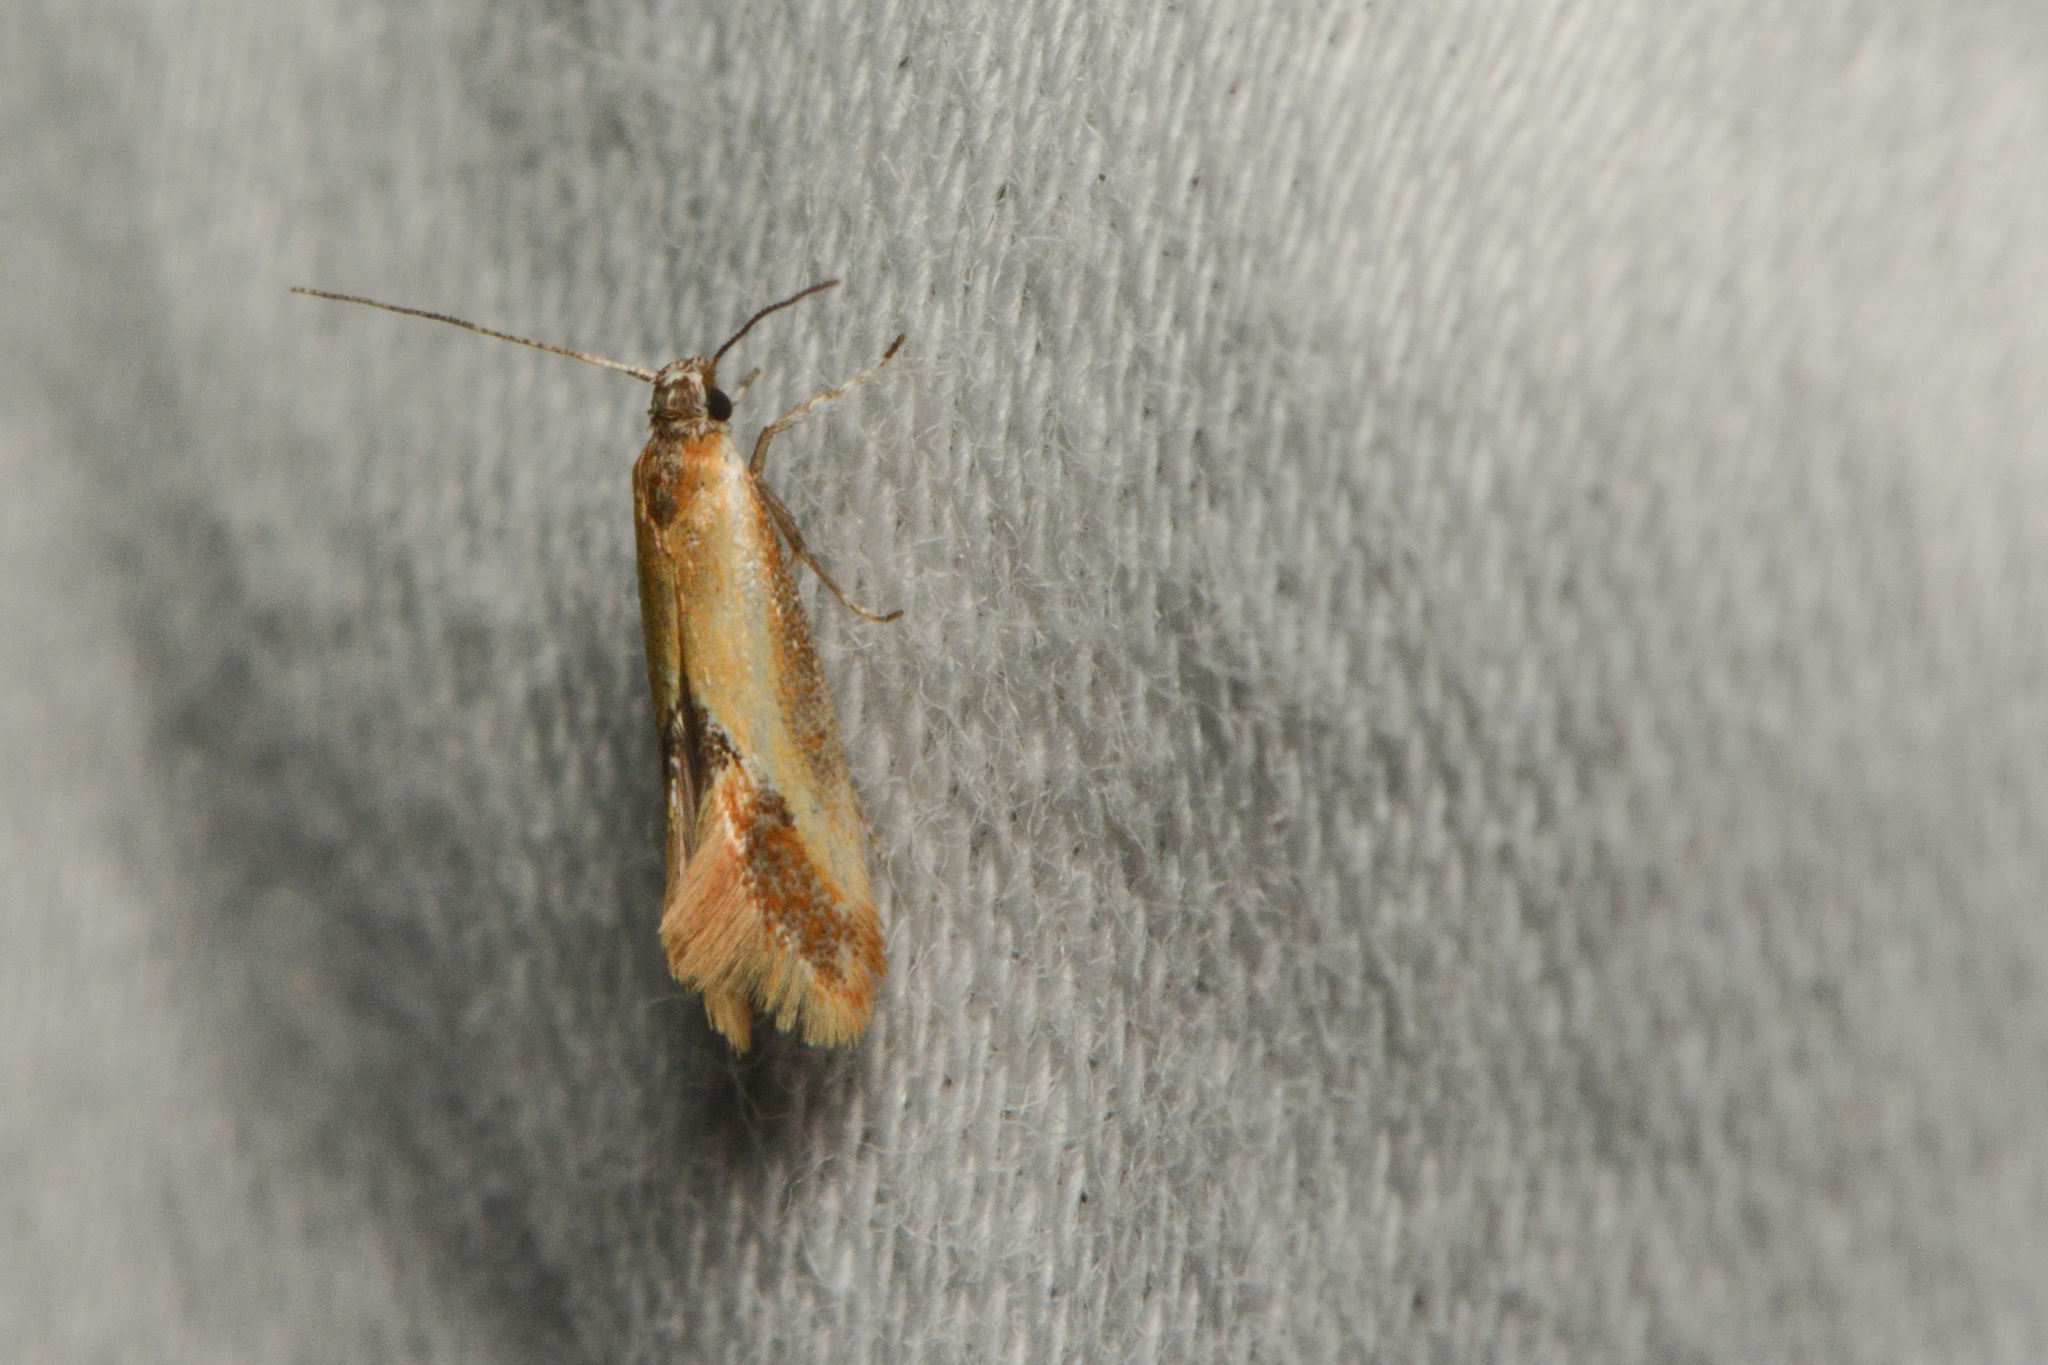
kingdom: Animalia
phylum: Arthropoda
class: Insecta
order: Lepidoptera
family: Oecophoridae
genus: Batia
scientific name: Batia lunaris
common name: Moth
